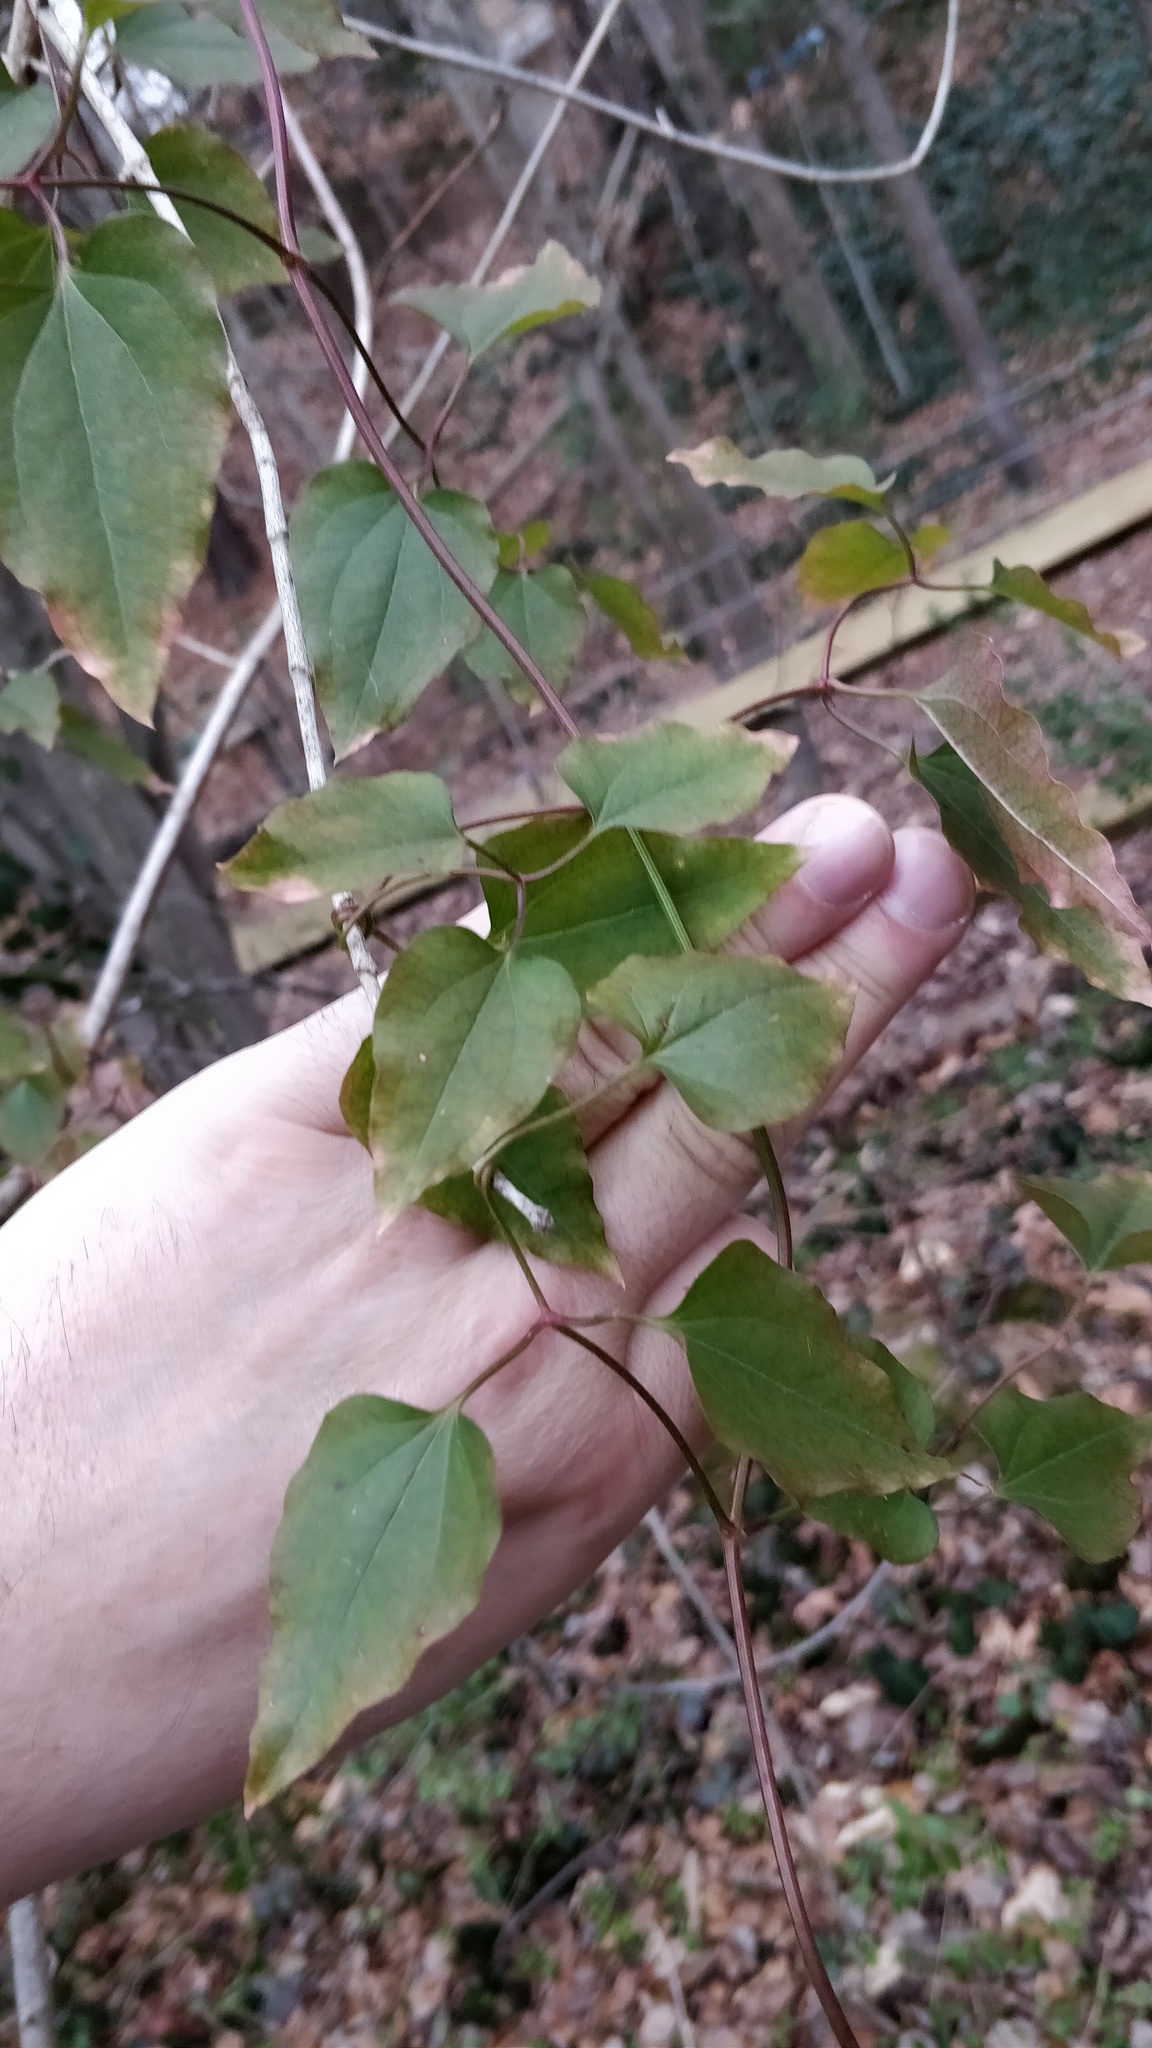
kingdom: Plantae
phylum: Tracheophyta
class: Magnoliopsida
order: Ranunculales
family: Ranunculaceae
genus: Clematis
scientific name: Clematis terniflora
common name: Sweet autumn clematis
